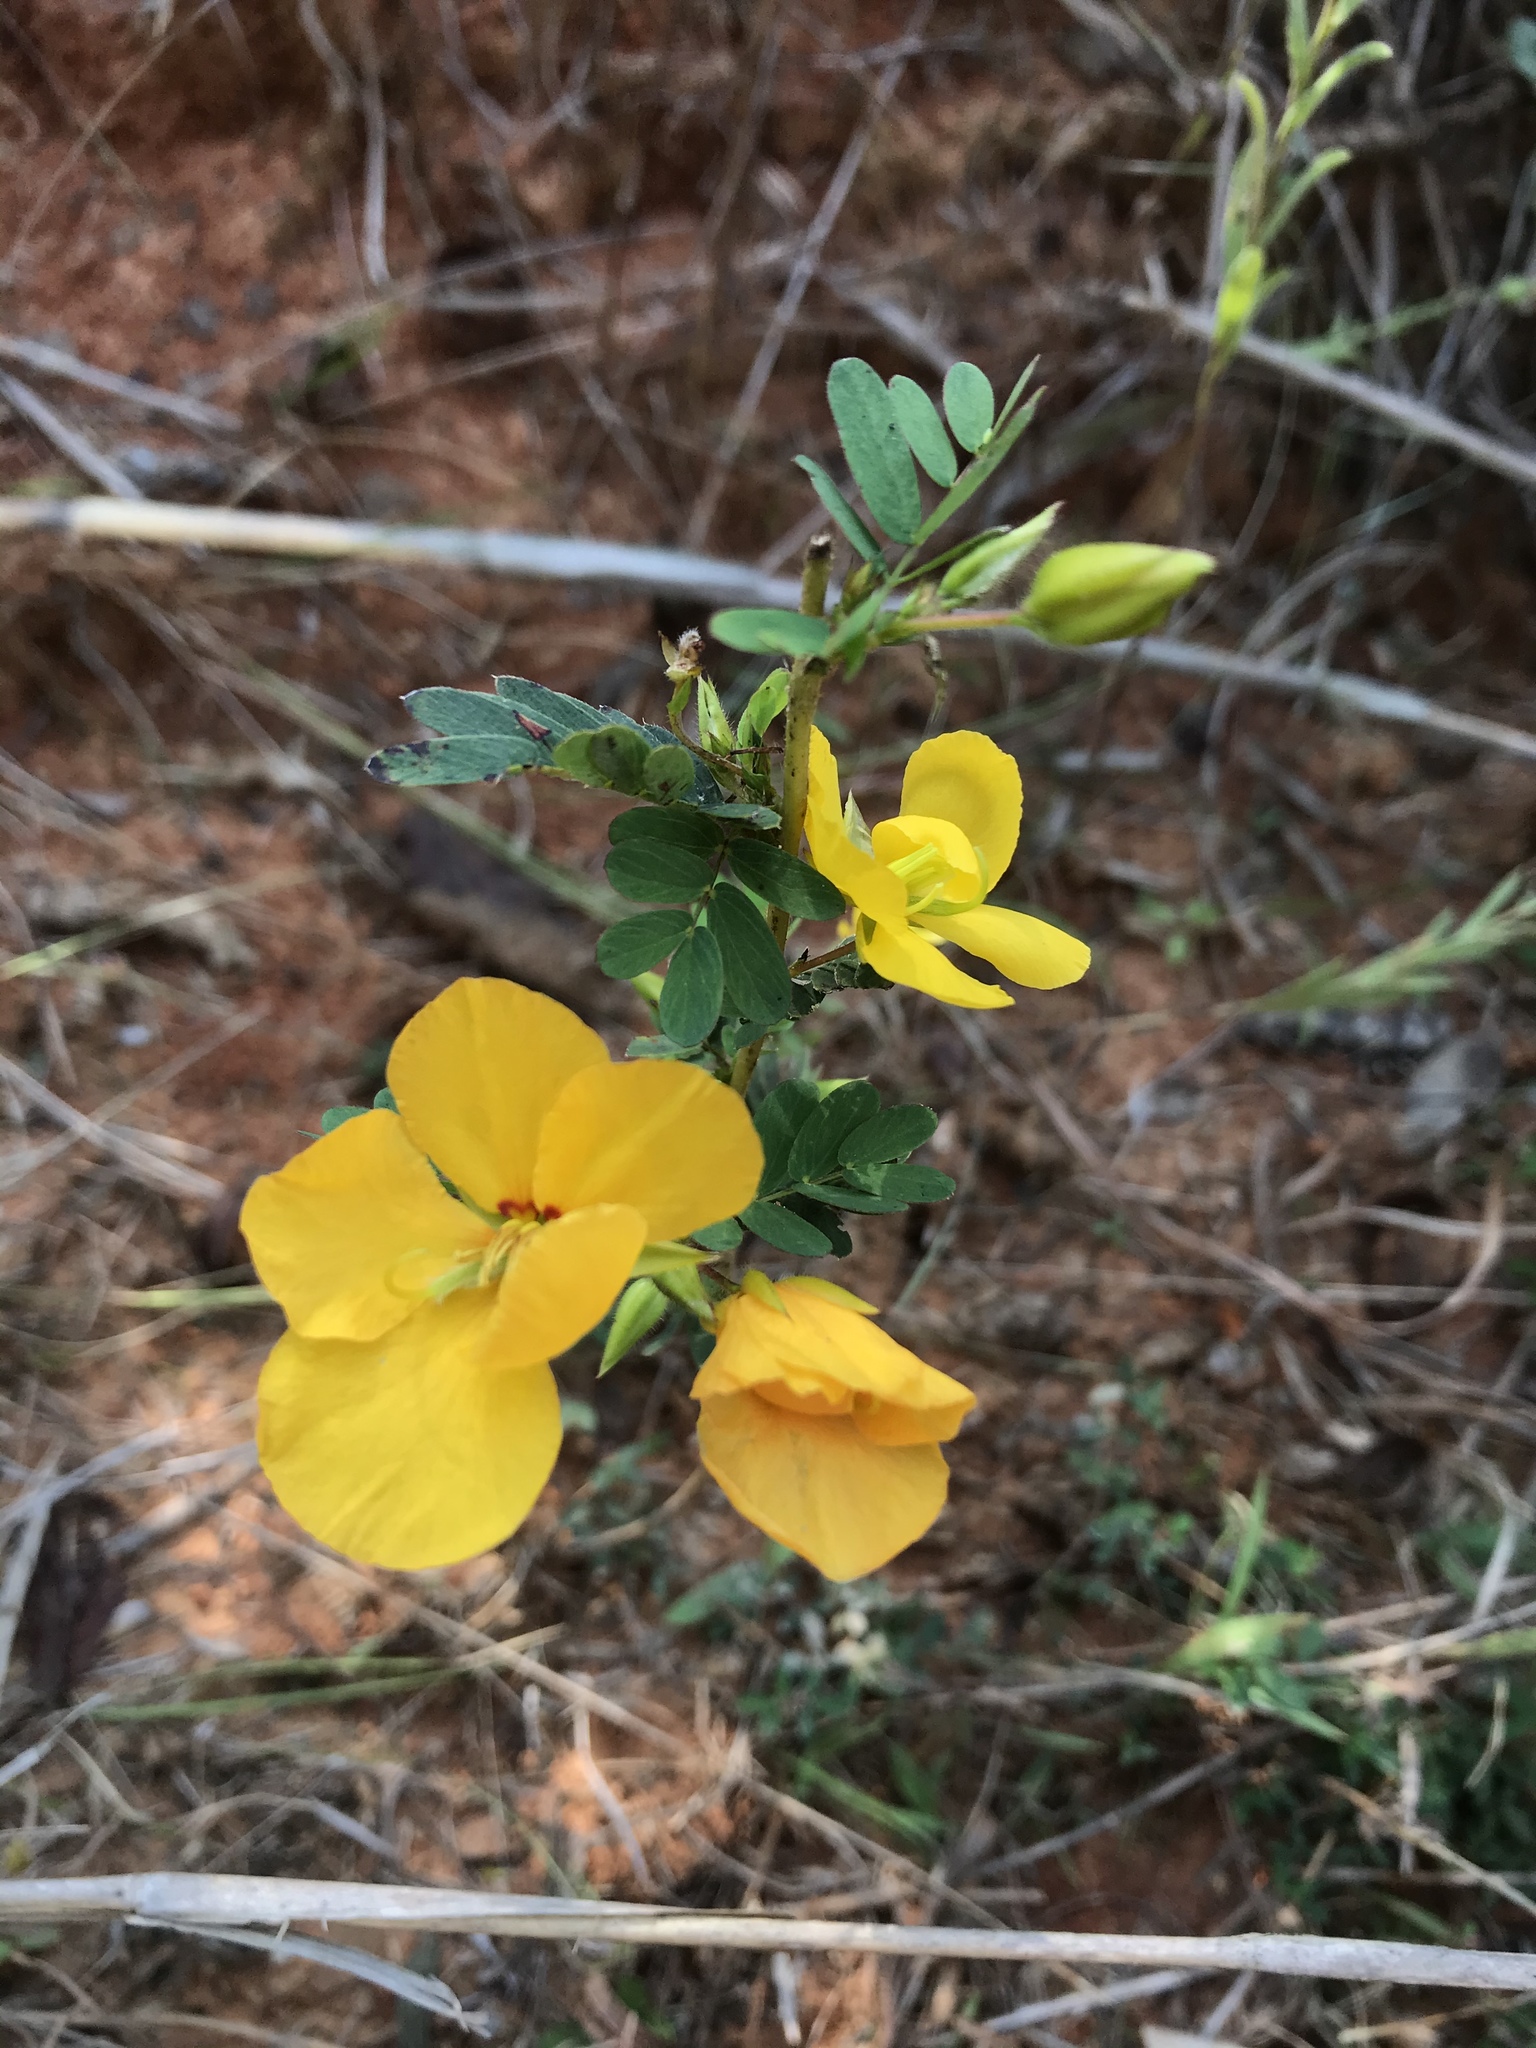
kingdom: Plantae
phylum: Tracheophyta
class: Magnoliopsida
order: Fabales
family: Fabaceae
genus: Chamaecrista
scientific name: Chamaecrista fasciculata
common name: Golden cassia
